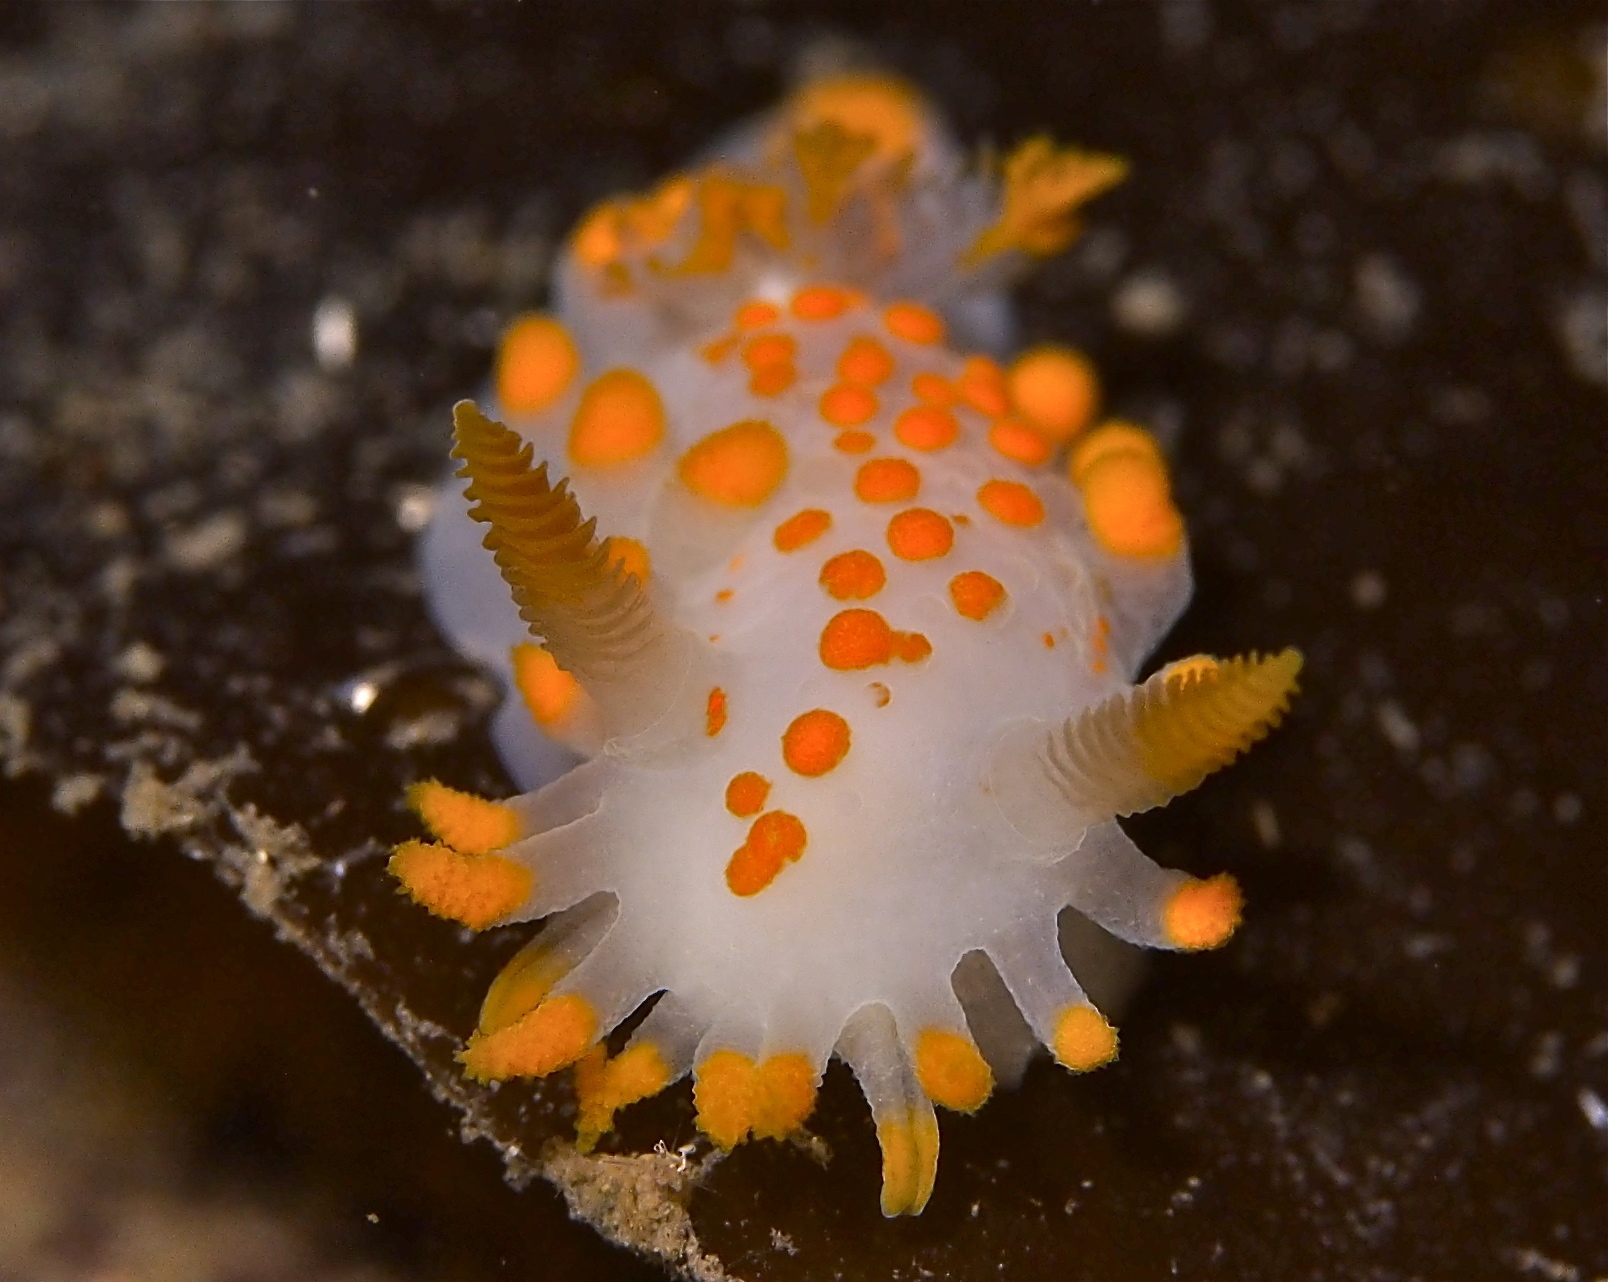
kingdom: Animalia
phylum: Mollusca
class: Gastropoda
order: Nudibranchia
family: Polyceridae
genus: Limacia
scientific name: Limacia clavigera
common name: Orange-clubbed sea slug
